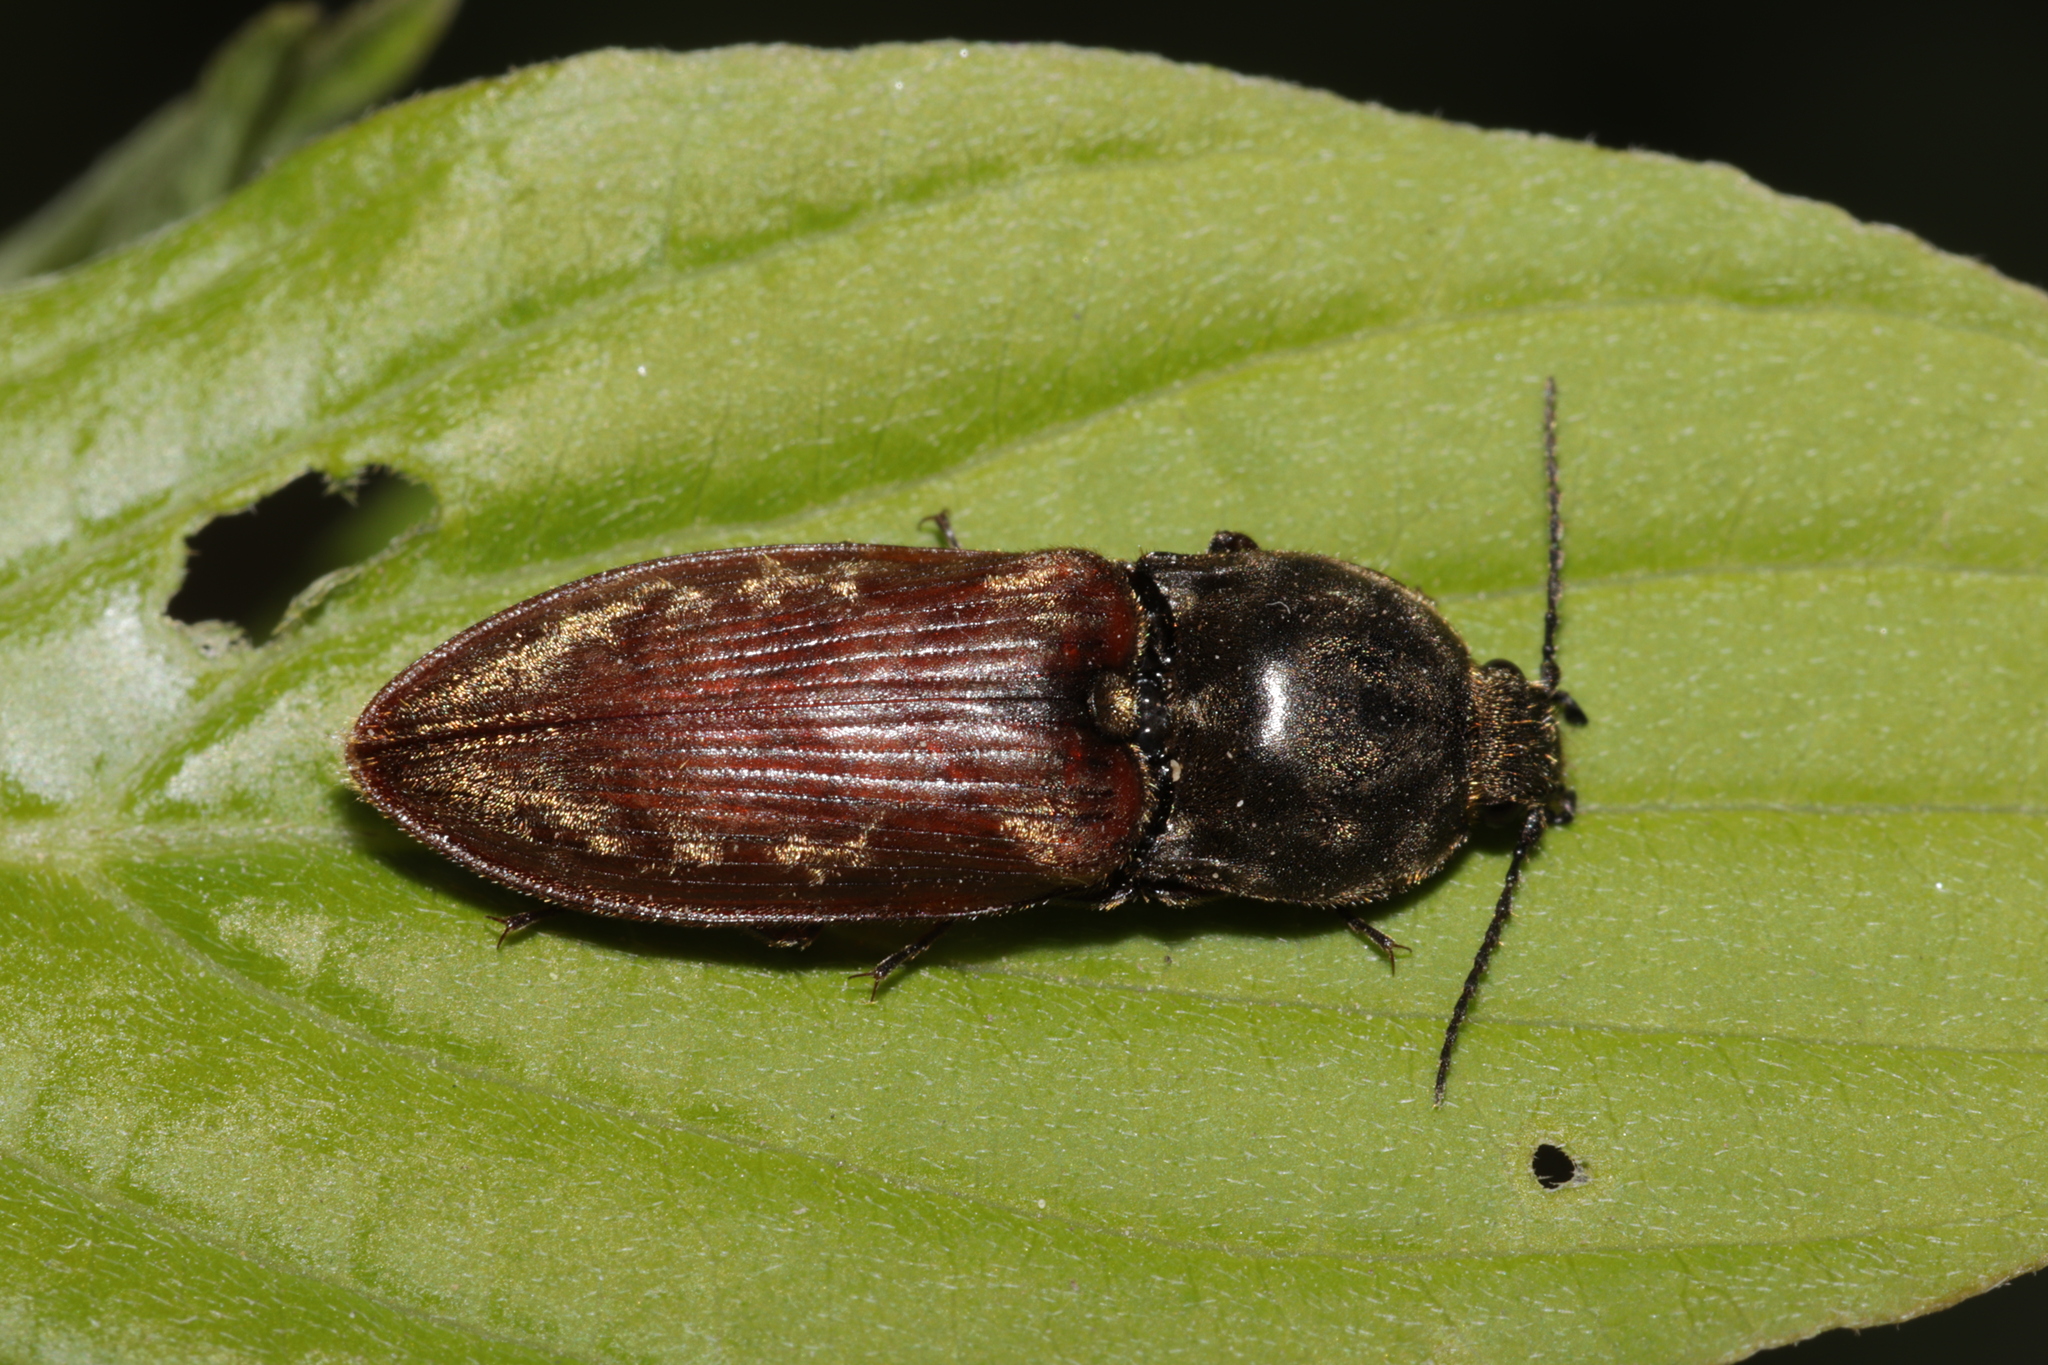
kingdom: Animalia
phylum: Arthropoda
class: Insecta
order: Coleoptera
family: Elateridae
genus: Prosternon
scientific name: Prosternon bombycinum
